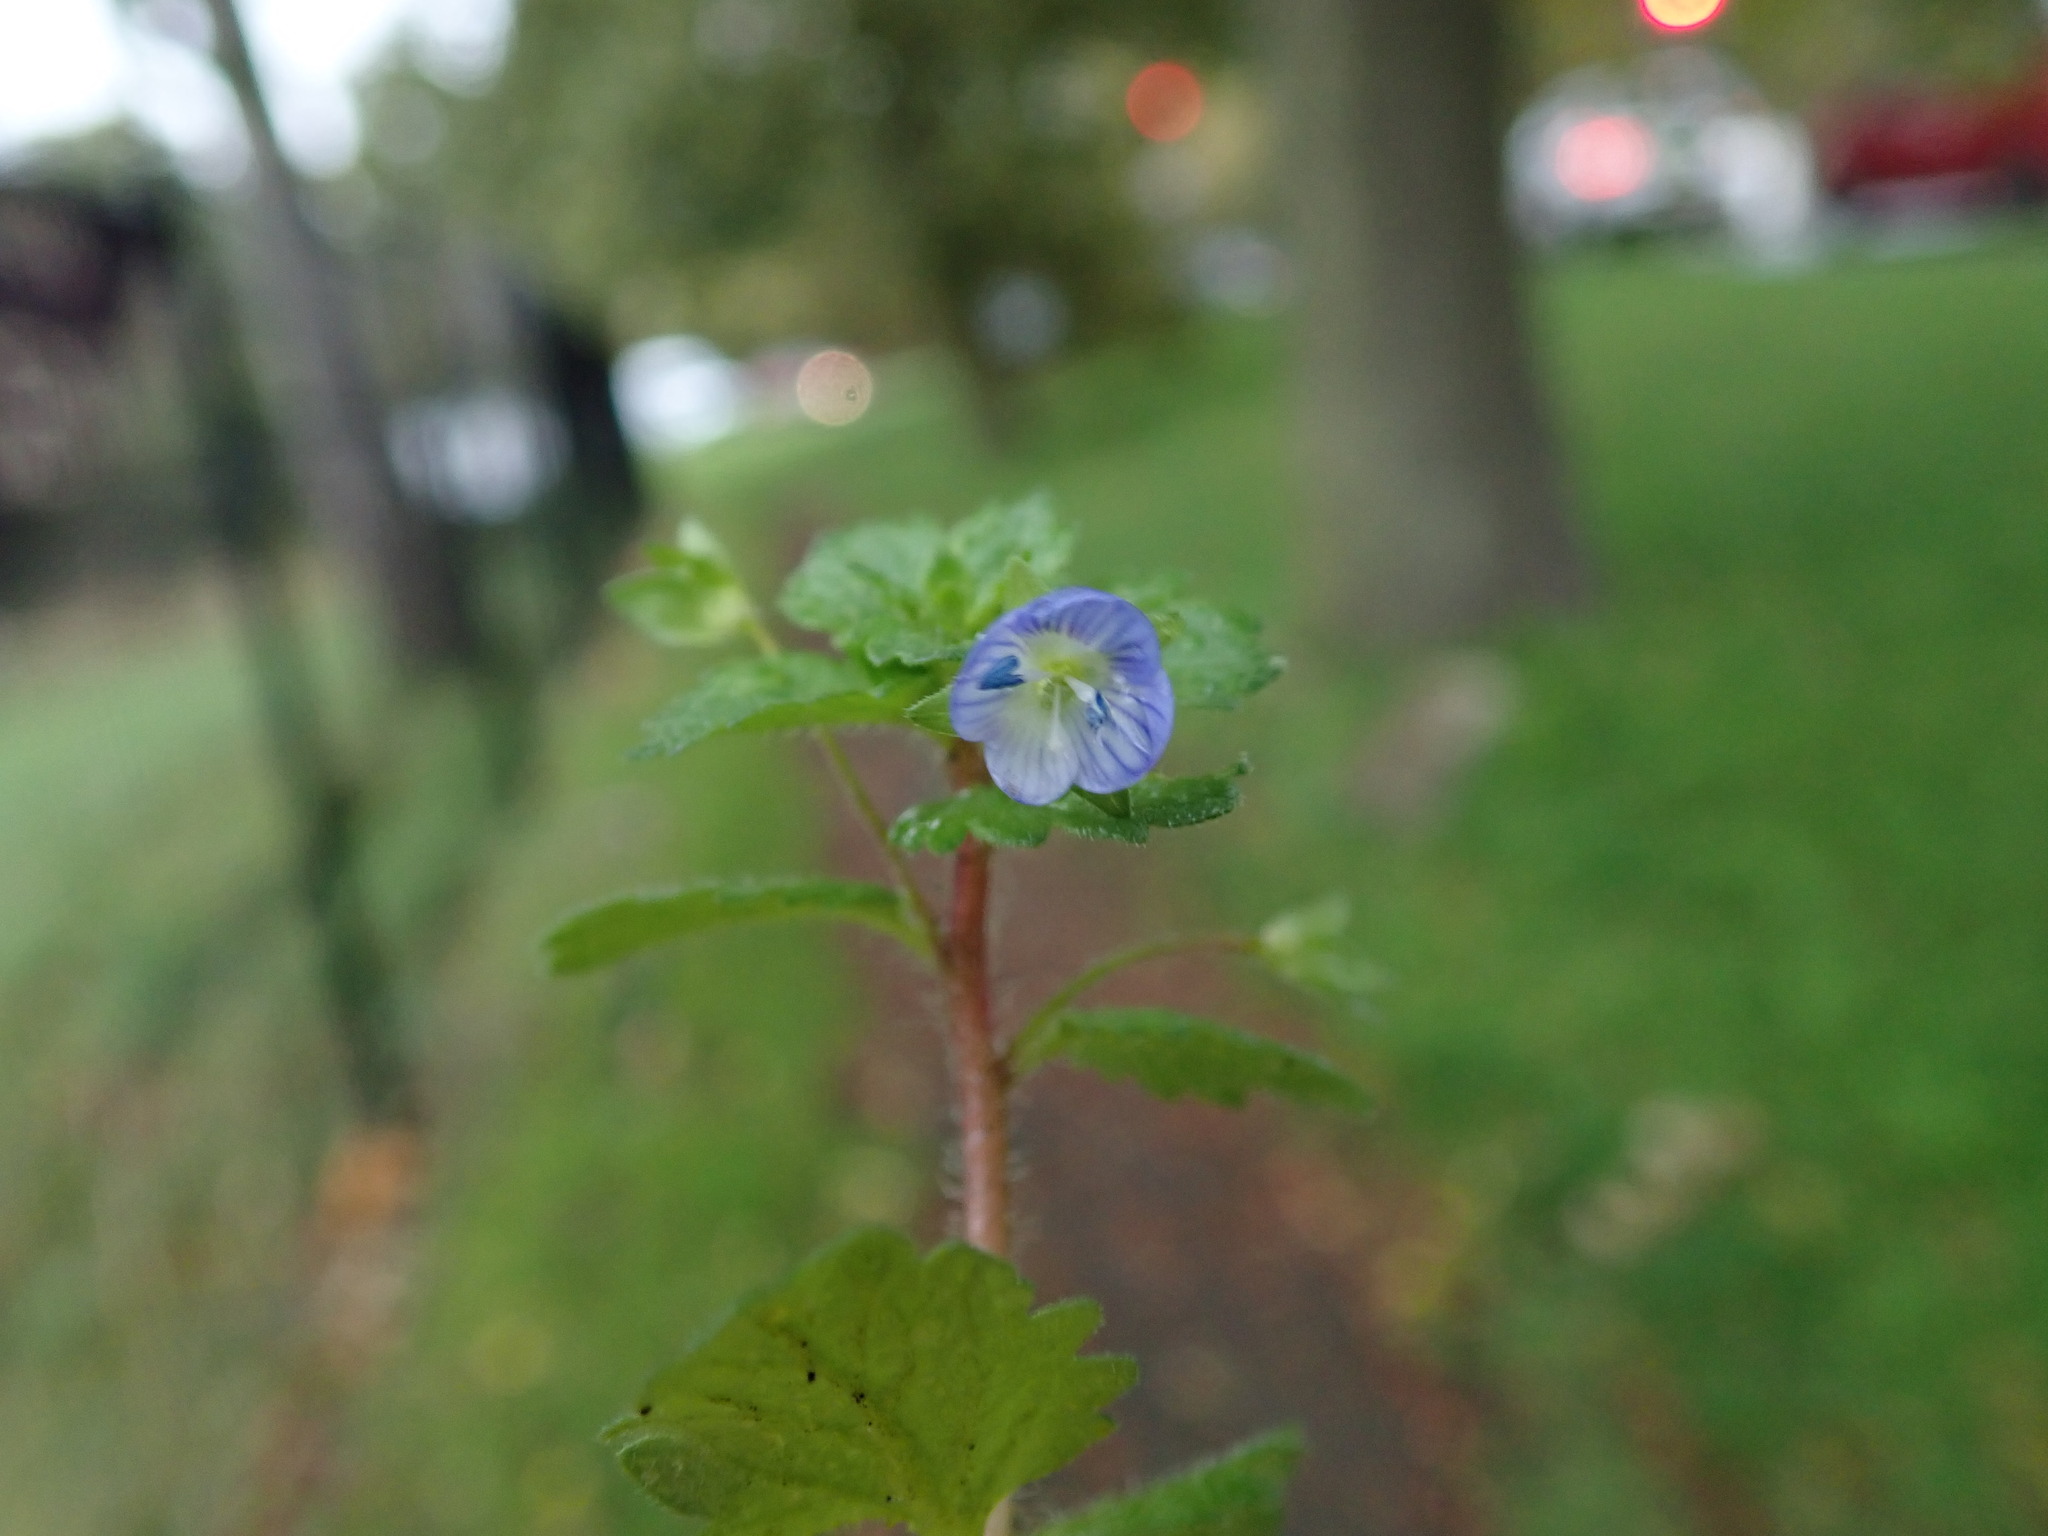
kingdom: Plantae
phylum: Tracheophyta
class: Magnoliopsida
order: Lamiales
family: Plantaginaceae
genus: Veronica
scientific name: Veronica persica
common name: Common field-speedwell
